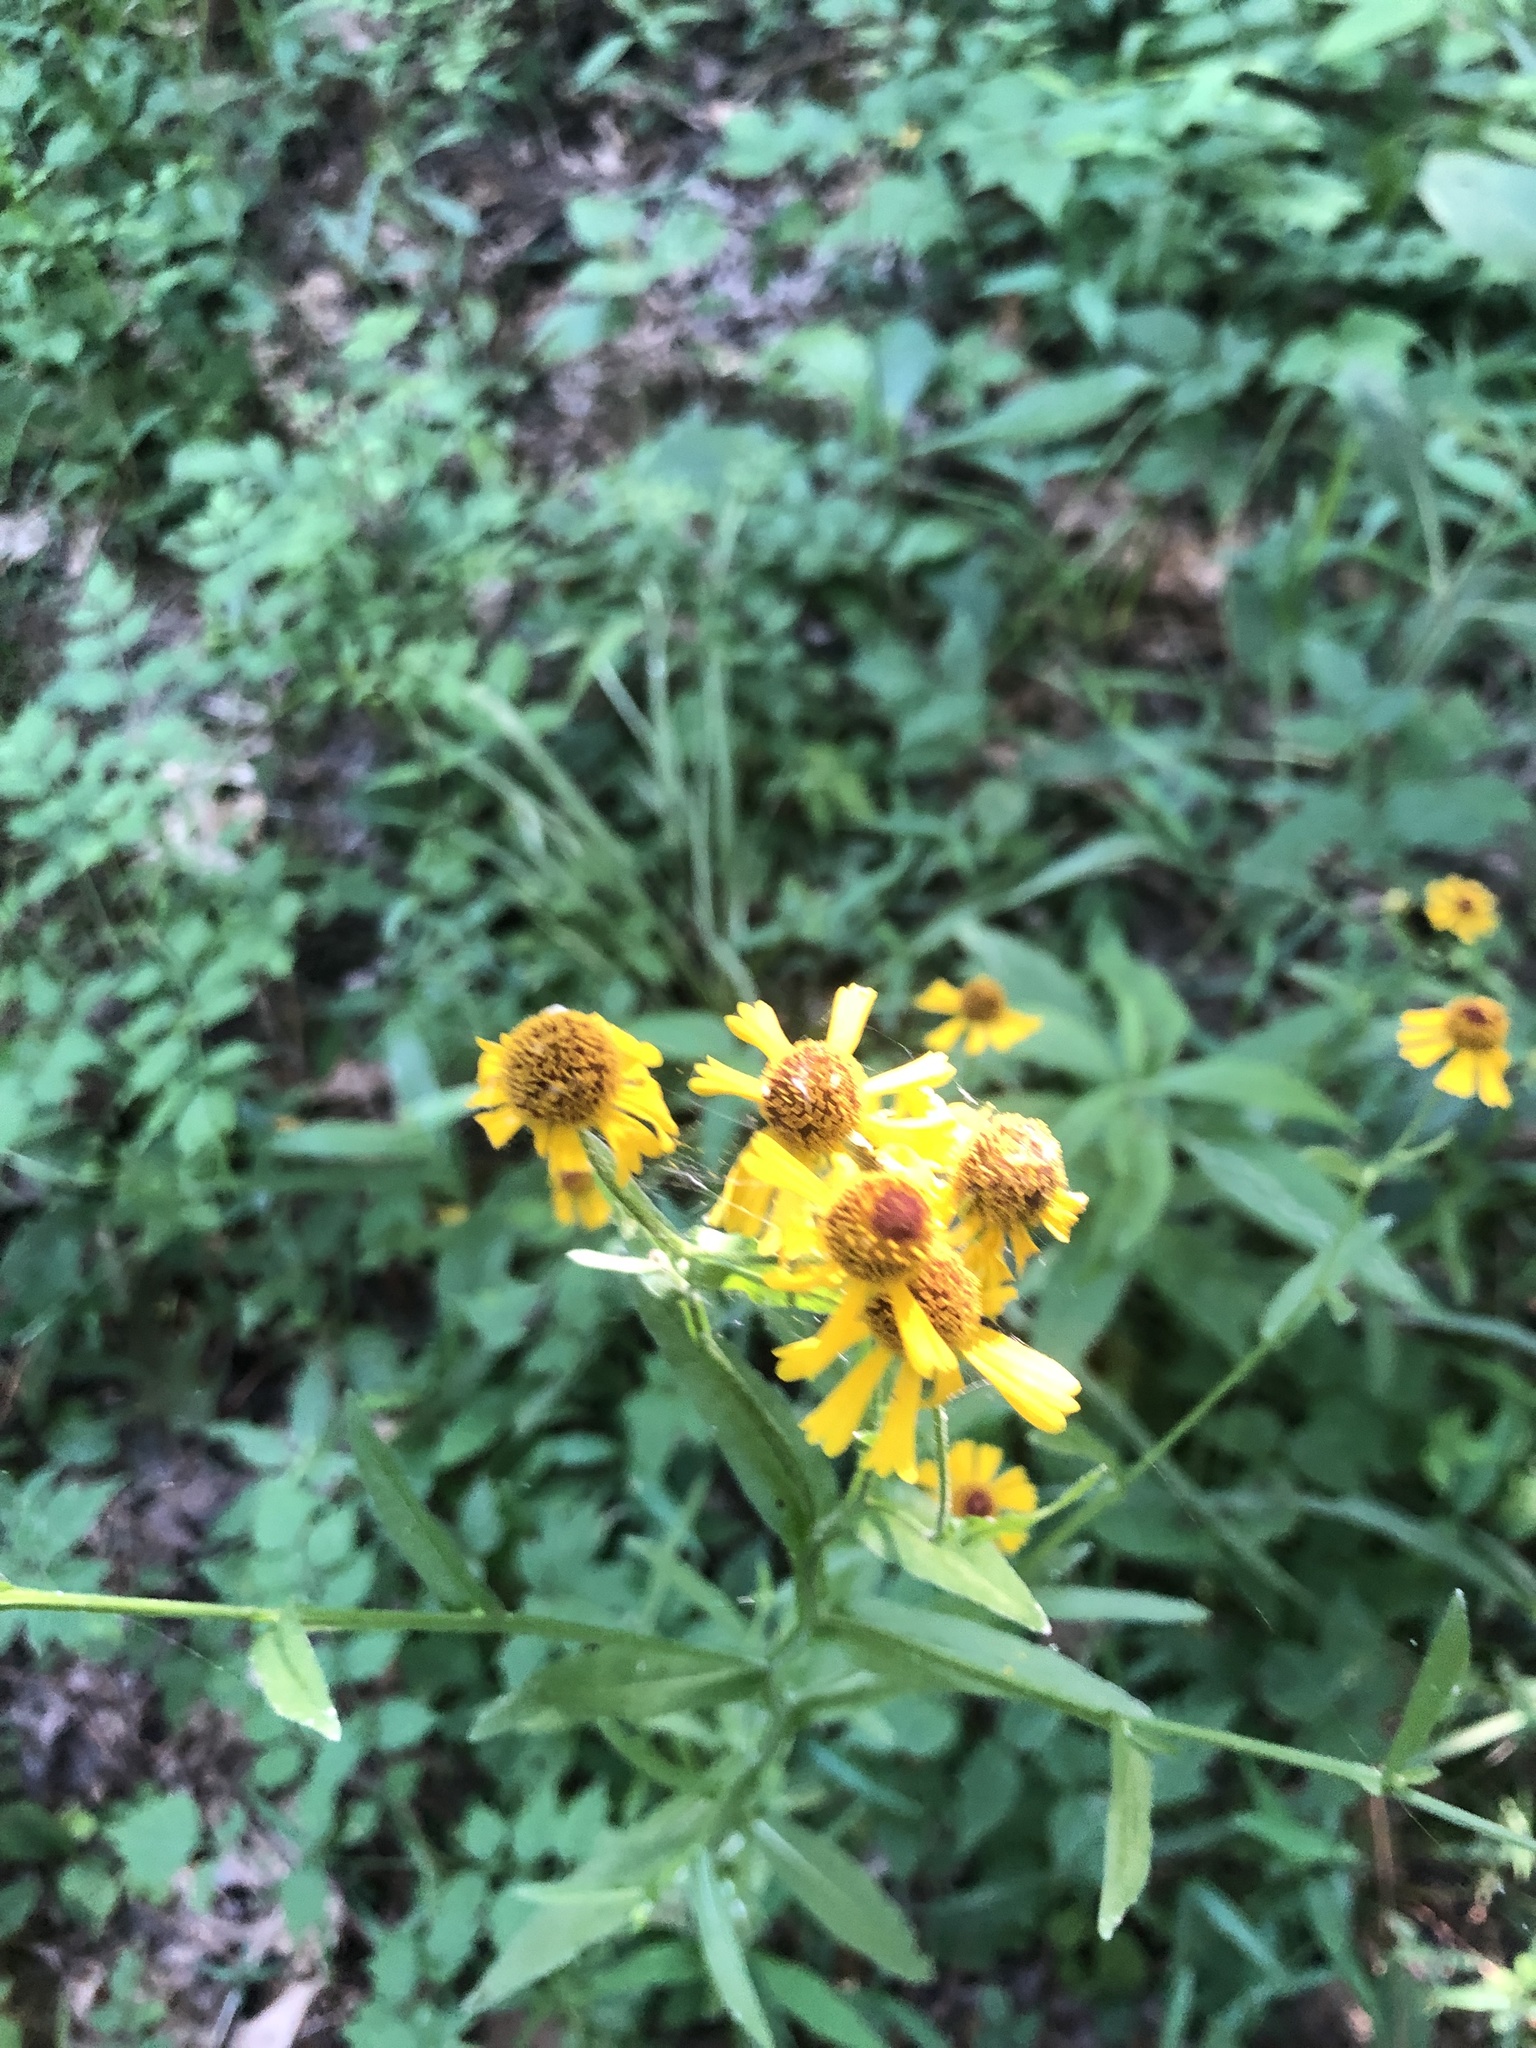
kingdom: Plantae
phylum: Tracheophyta
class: Magnoliopsida
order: Asterales
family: Asteraceae
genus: Helenium
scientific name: Helenium flexuosum
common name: Naked-flowered sneezeweed
